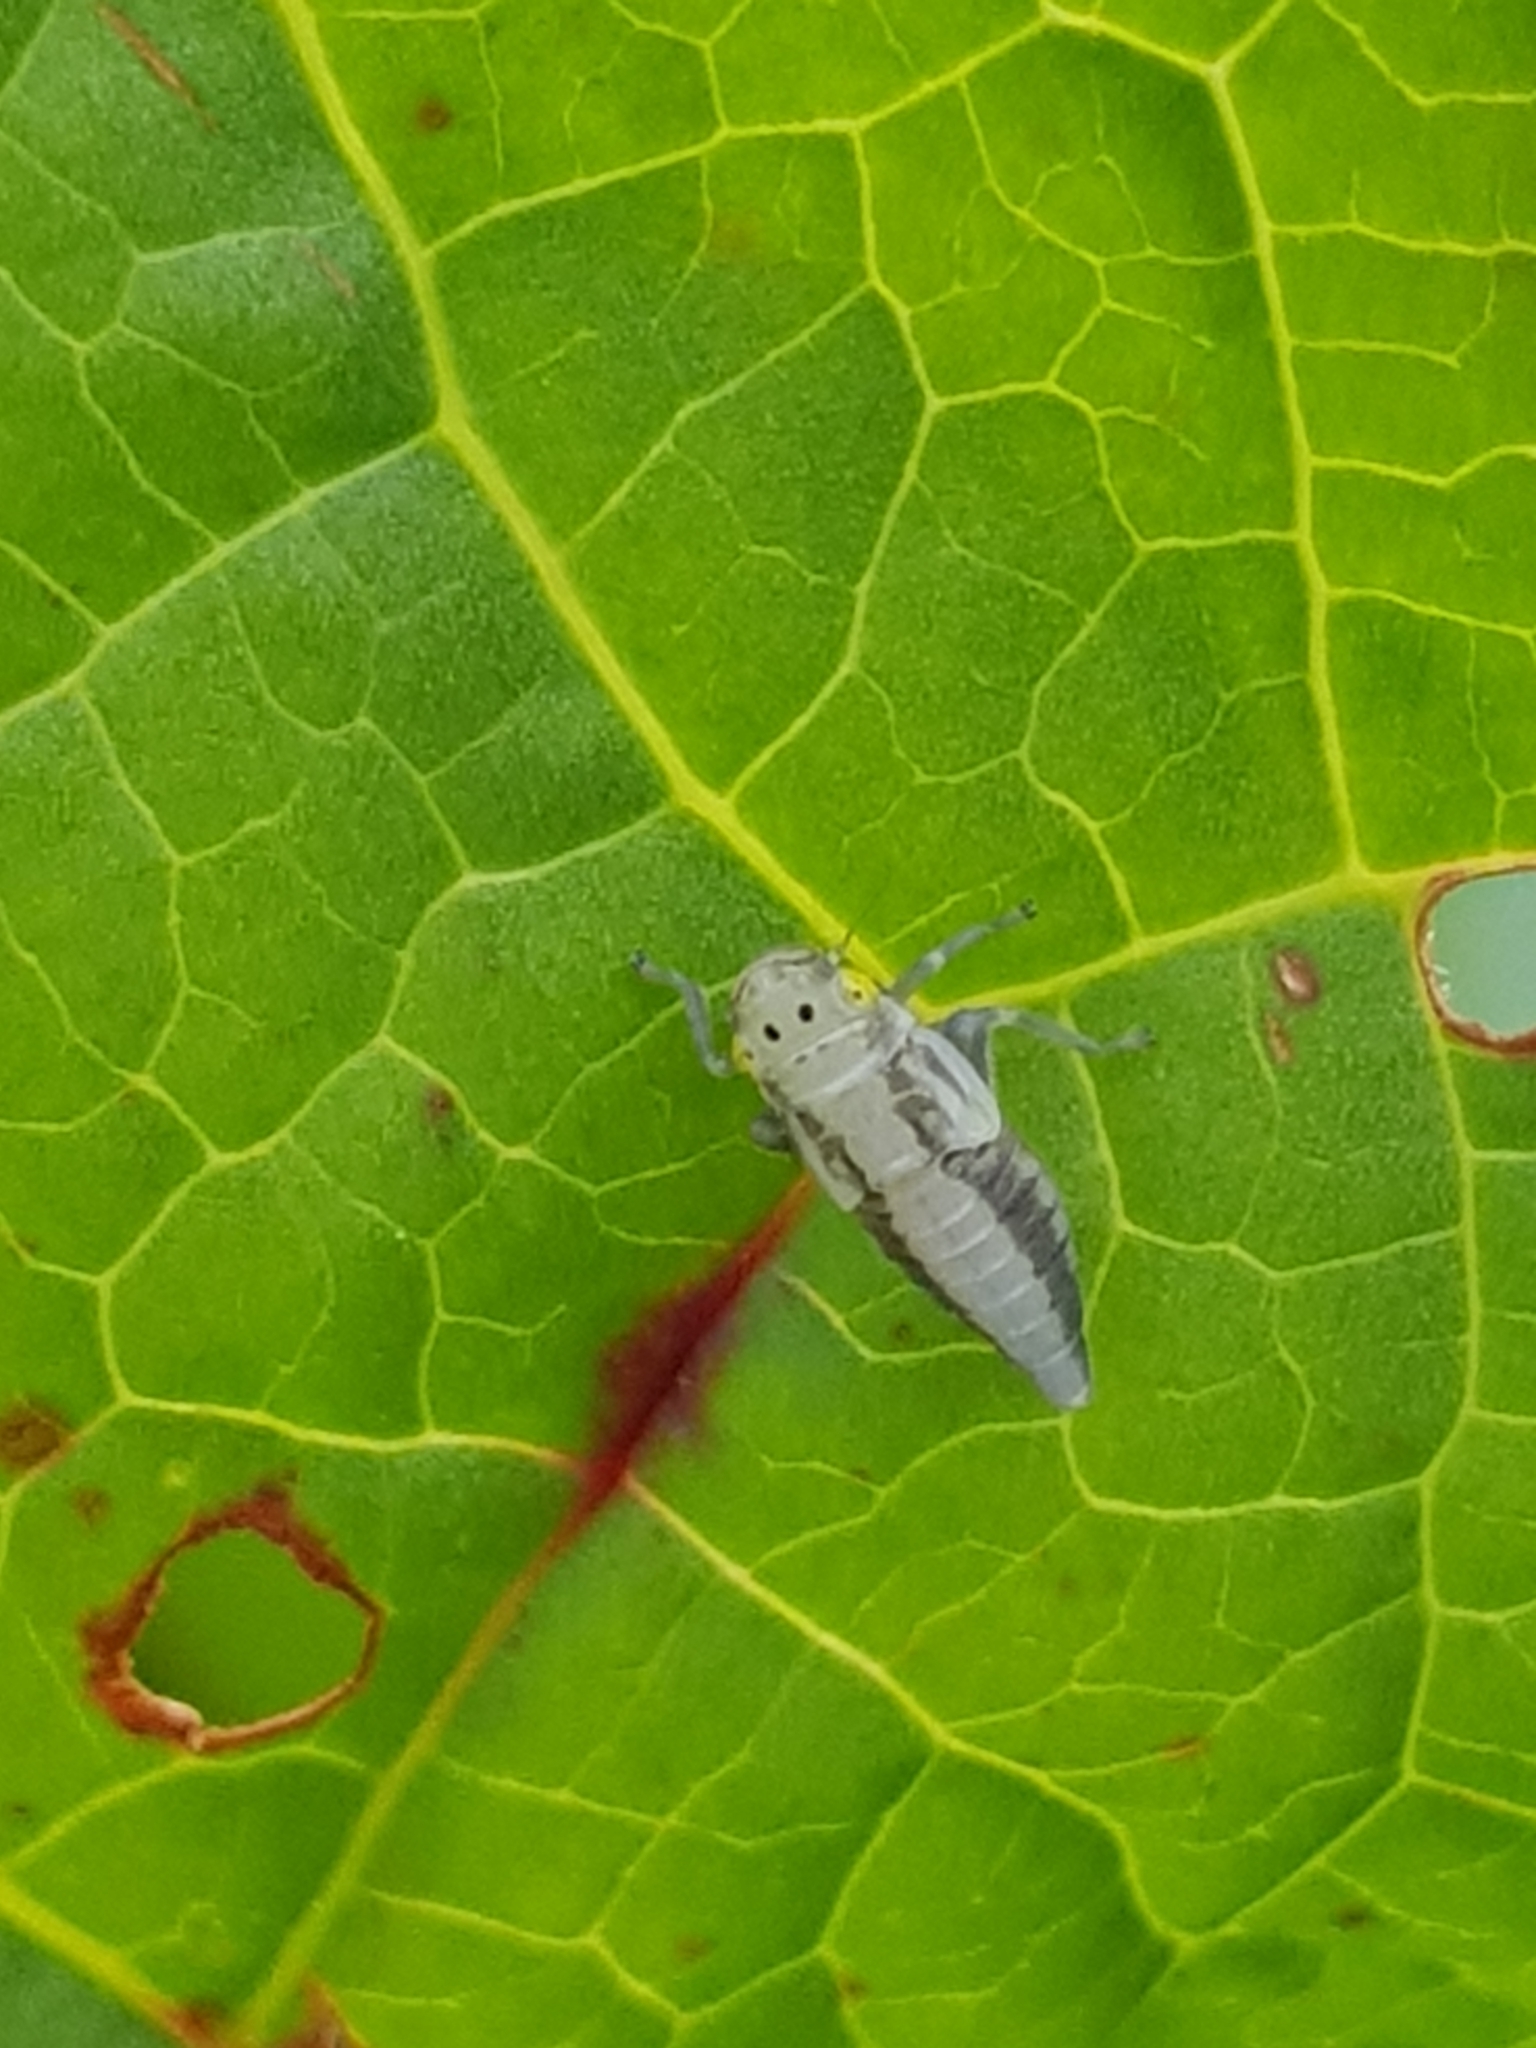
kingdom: Animalia
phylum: Arthropoda
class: Insecta
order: Hemiptera
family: Cicadellidae
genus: Evacanthus
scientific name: Evacanthus interruptus
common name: Leafhopper
